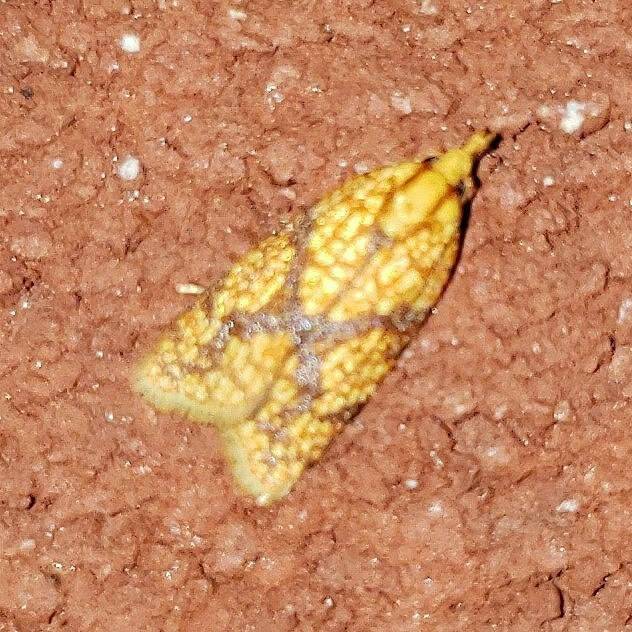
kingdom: Animalia
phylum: Arthropoda
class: Insecta
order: Lepidoptera
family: Tortricidae
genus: Sparganothis
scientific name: Sparganothis sulfureana
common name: Sparganothis fruitworm moth
